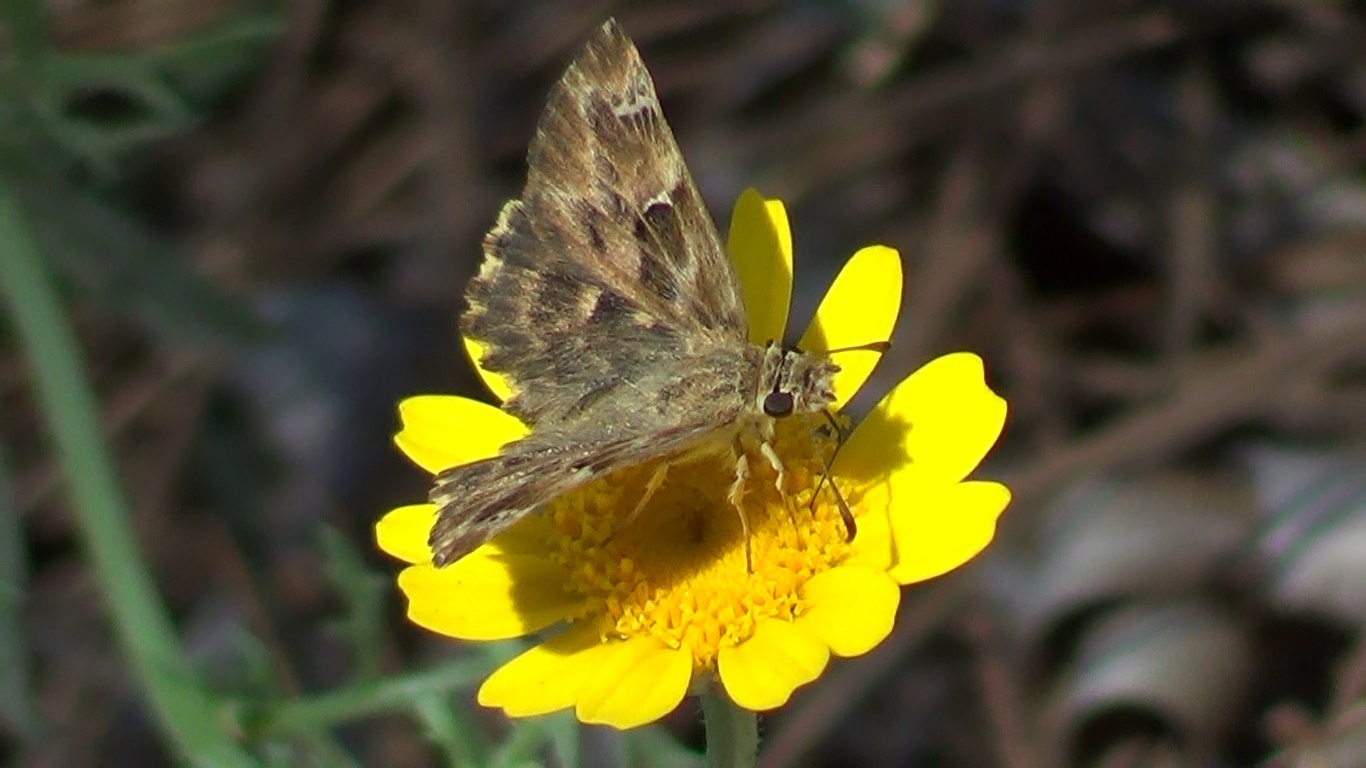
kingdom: Animalia
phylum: Arthropoda
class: Insecta
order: Lepidoptera
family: Hesperiidae
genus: Carcharodus
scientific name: Carcharodus alceae
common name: Mallow skipper
